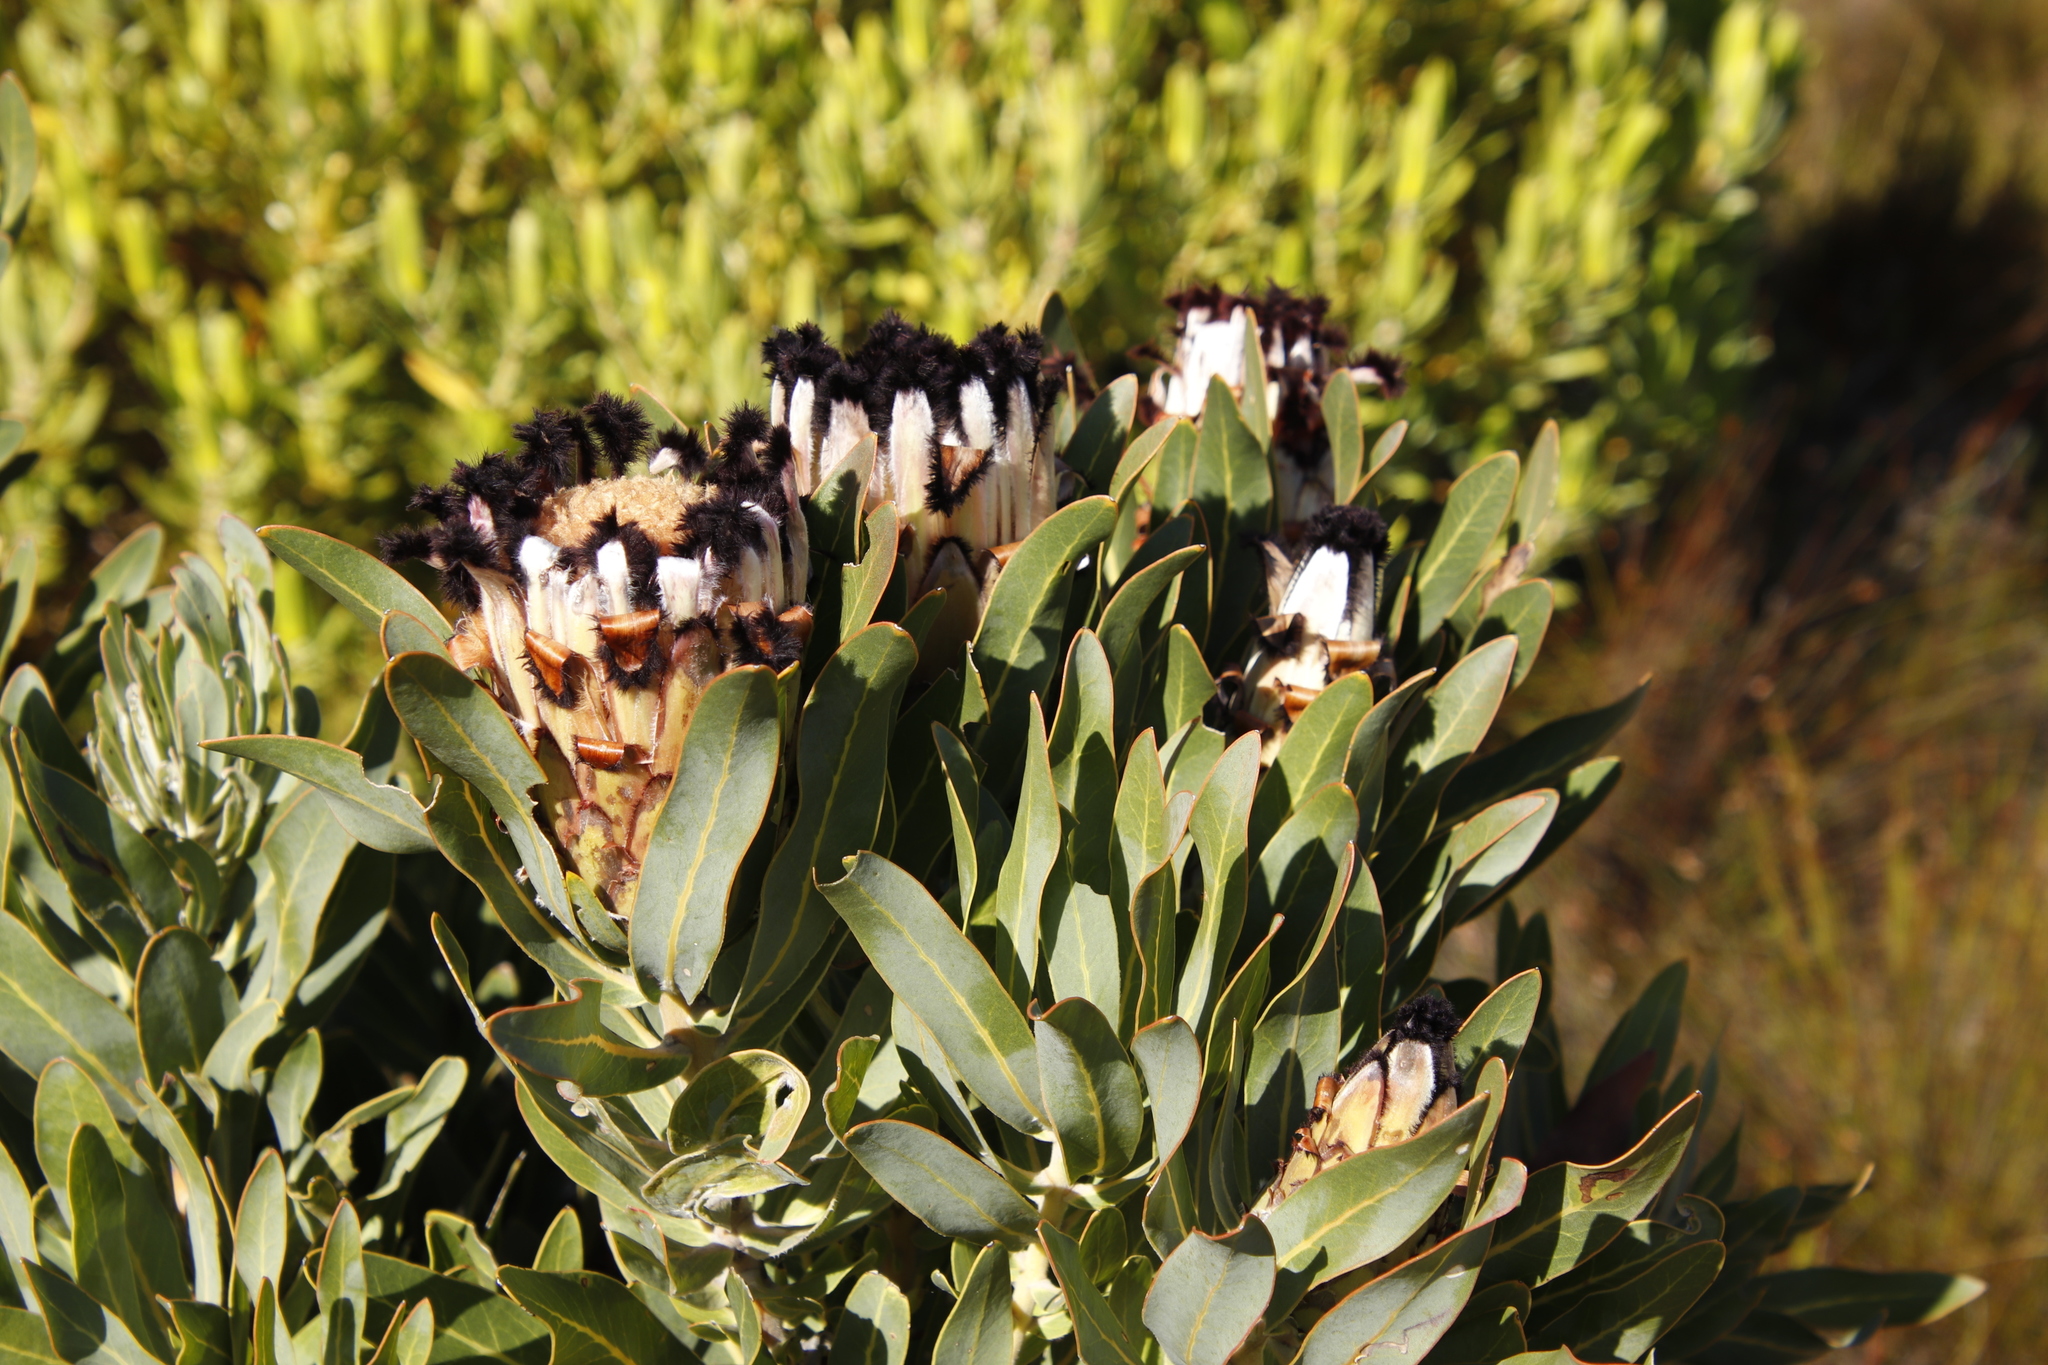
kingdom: Plantae
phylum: Tracheophyta
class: Magnoliopsida
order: Proteales
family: Proteaceae
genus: Protea
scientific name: Protea laurifolia
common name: Grey-leaf sugarbsh
